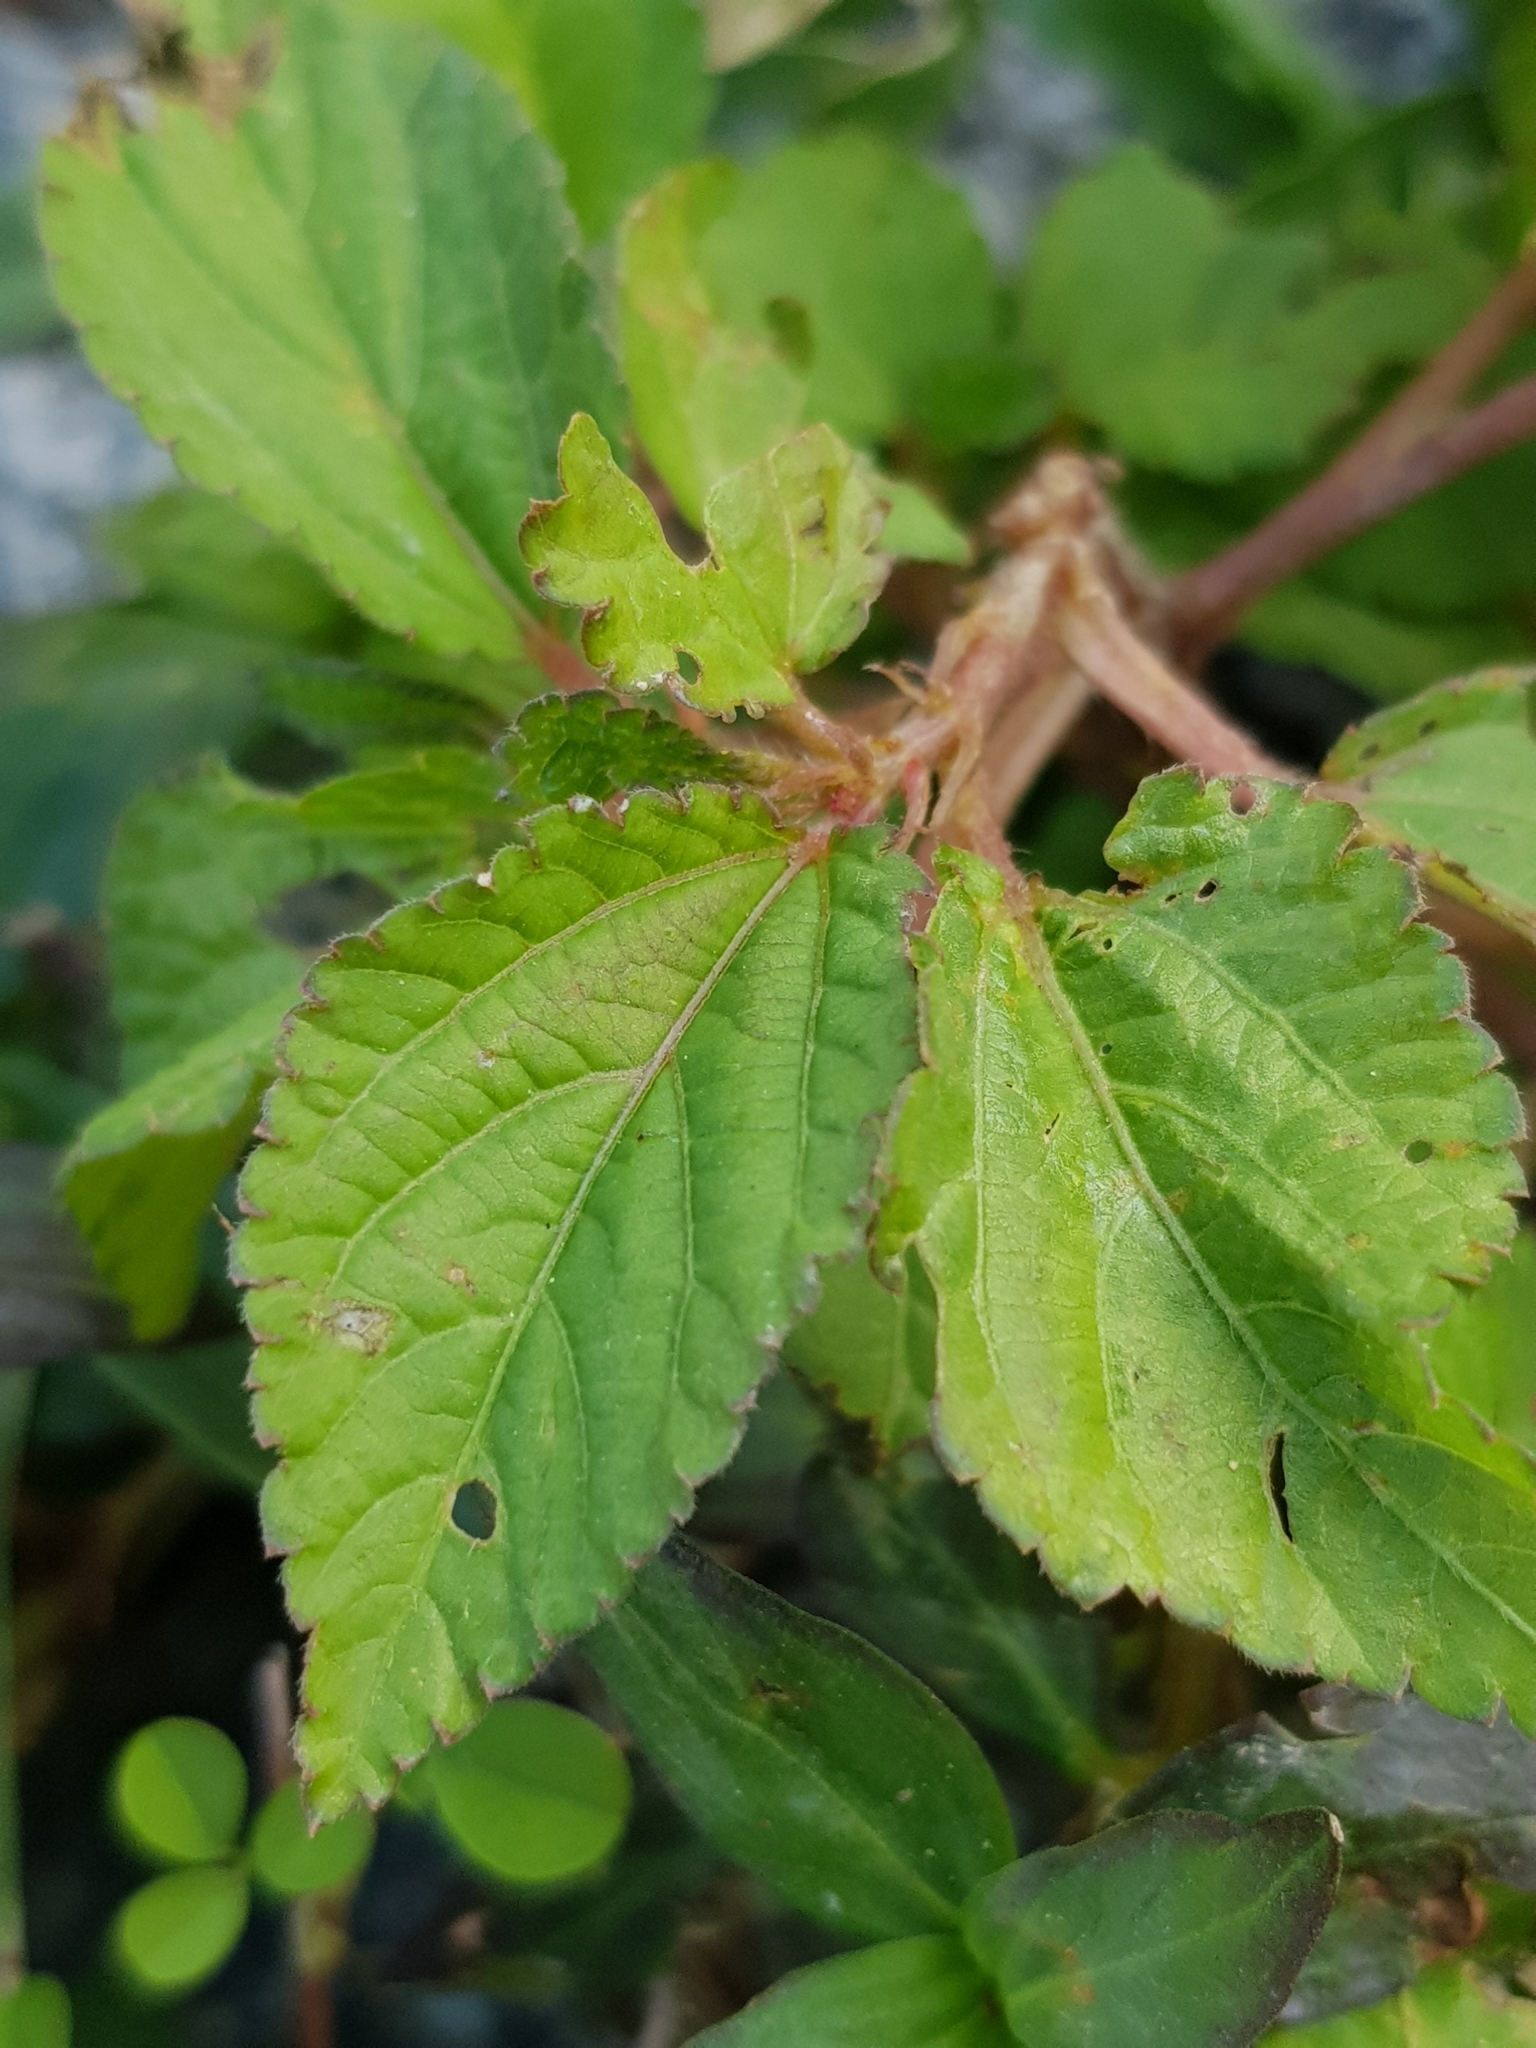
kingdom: Plantae
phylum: Tracheophyta
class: Magnoliopsida
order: Malvales
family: Malvaceae
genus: Corchorus
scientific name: Corchorus aestuans
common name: Jute
